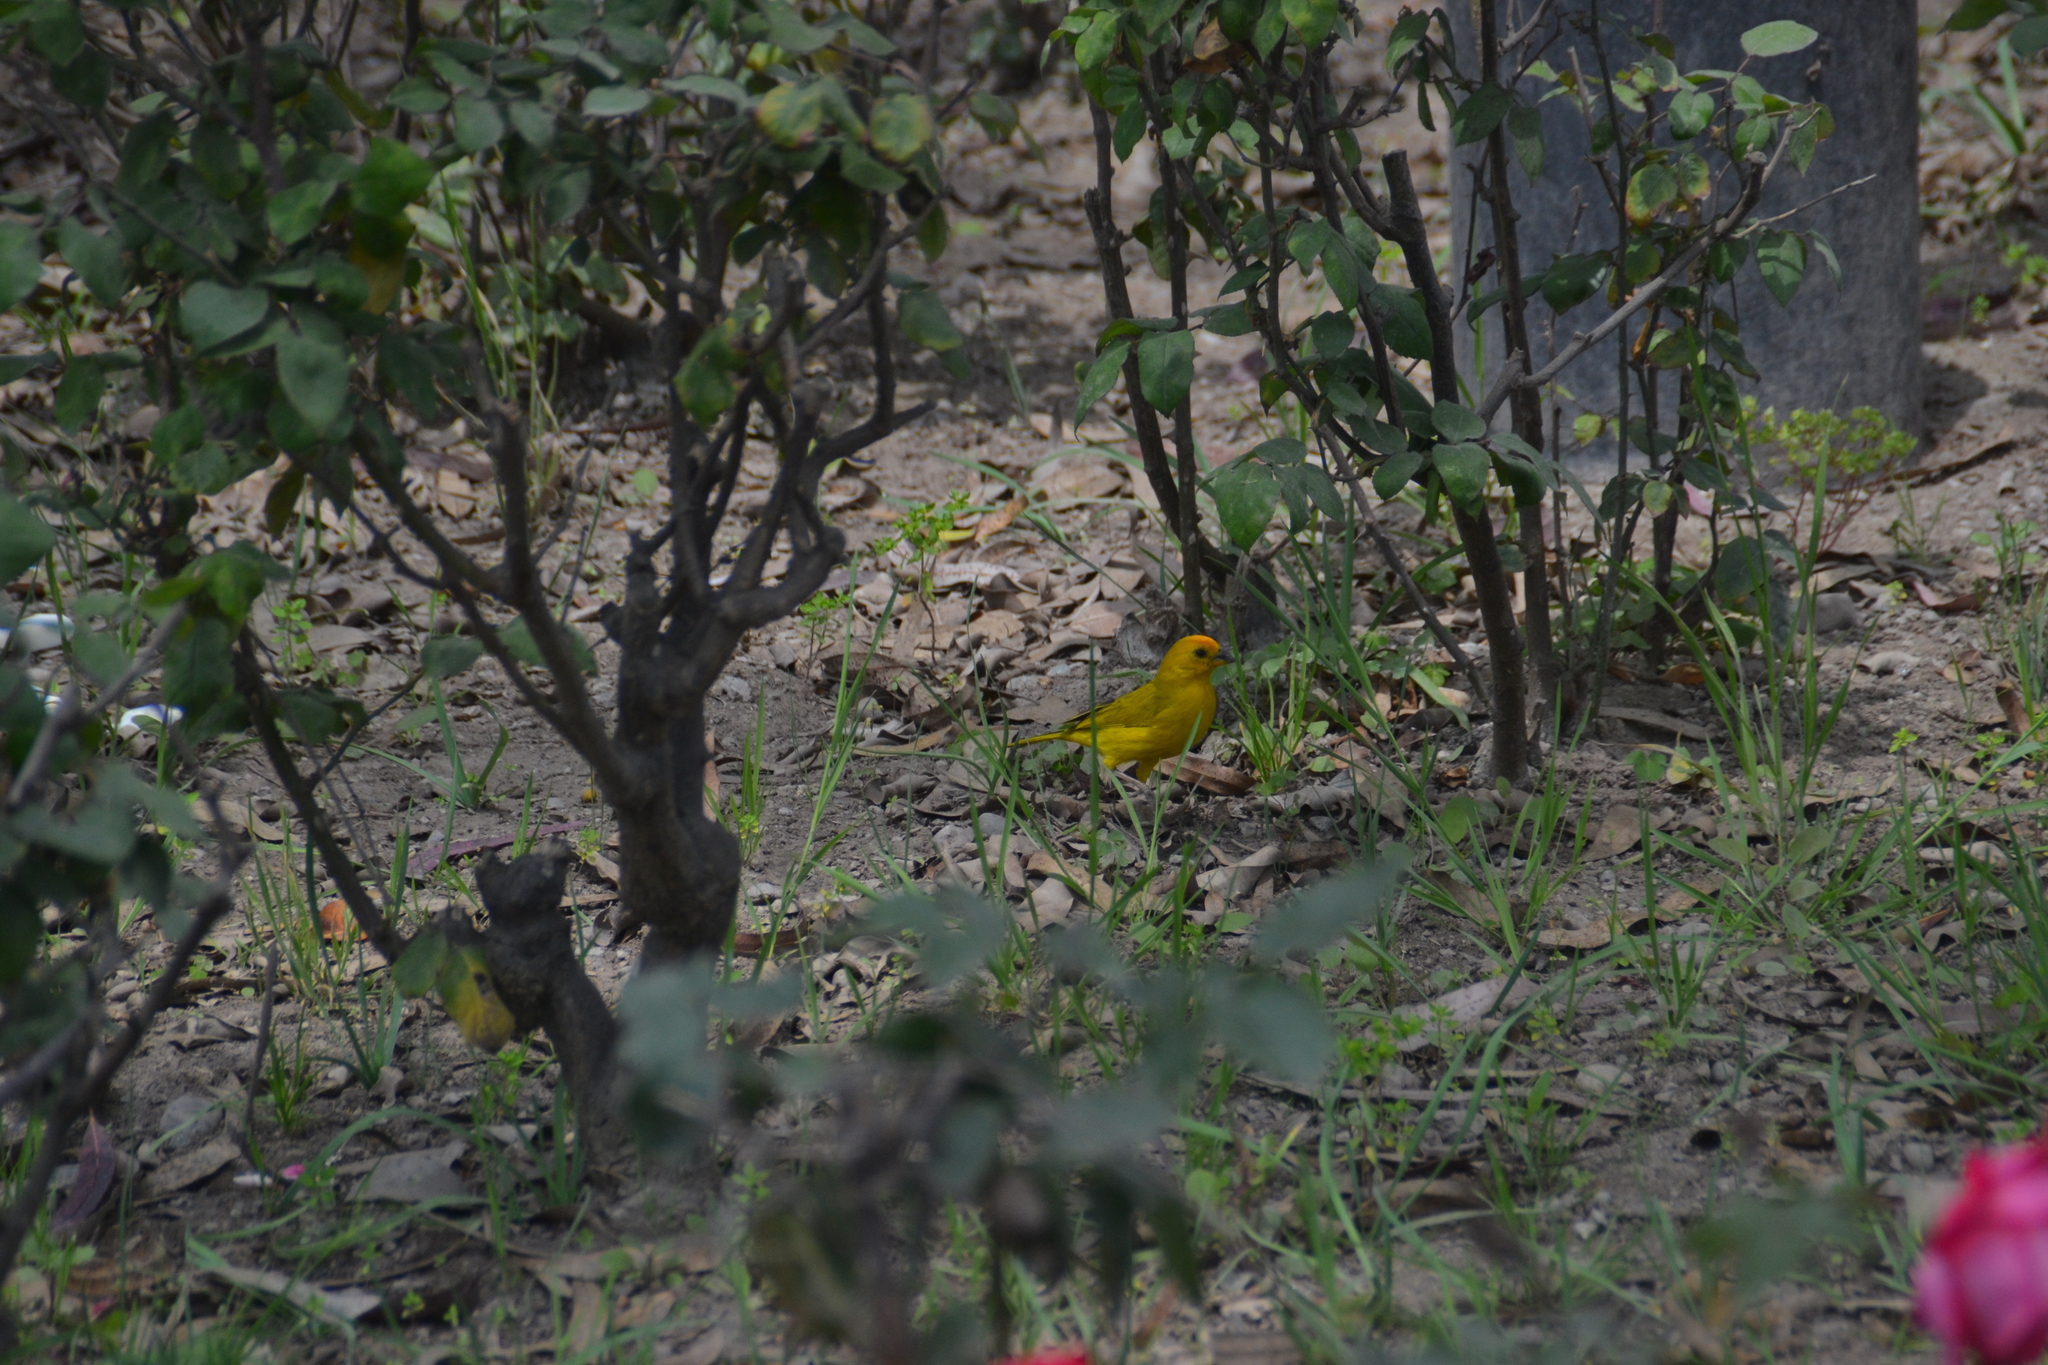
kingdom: Animalia
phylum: Chordata
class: Aves
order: Passeriformes
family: Thraupidae
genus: Sicalis
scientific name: Sicalis flaveola
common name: Saffron finch
